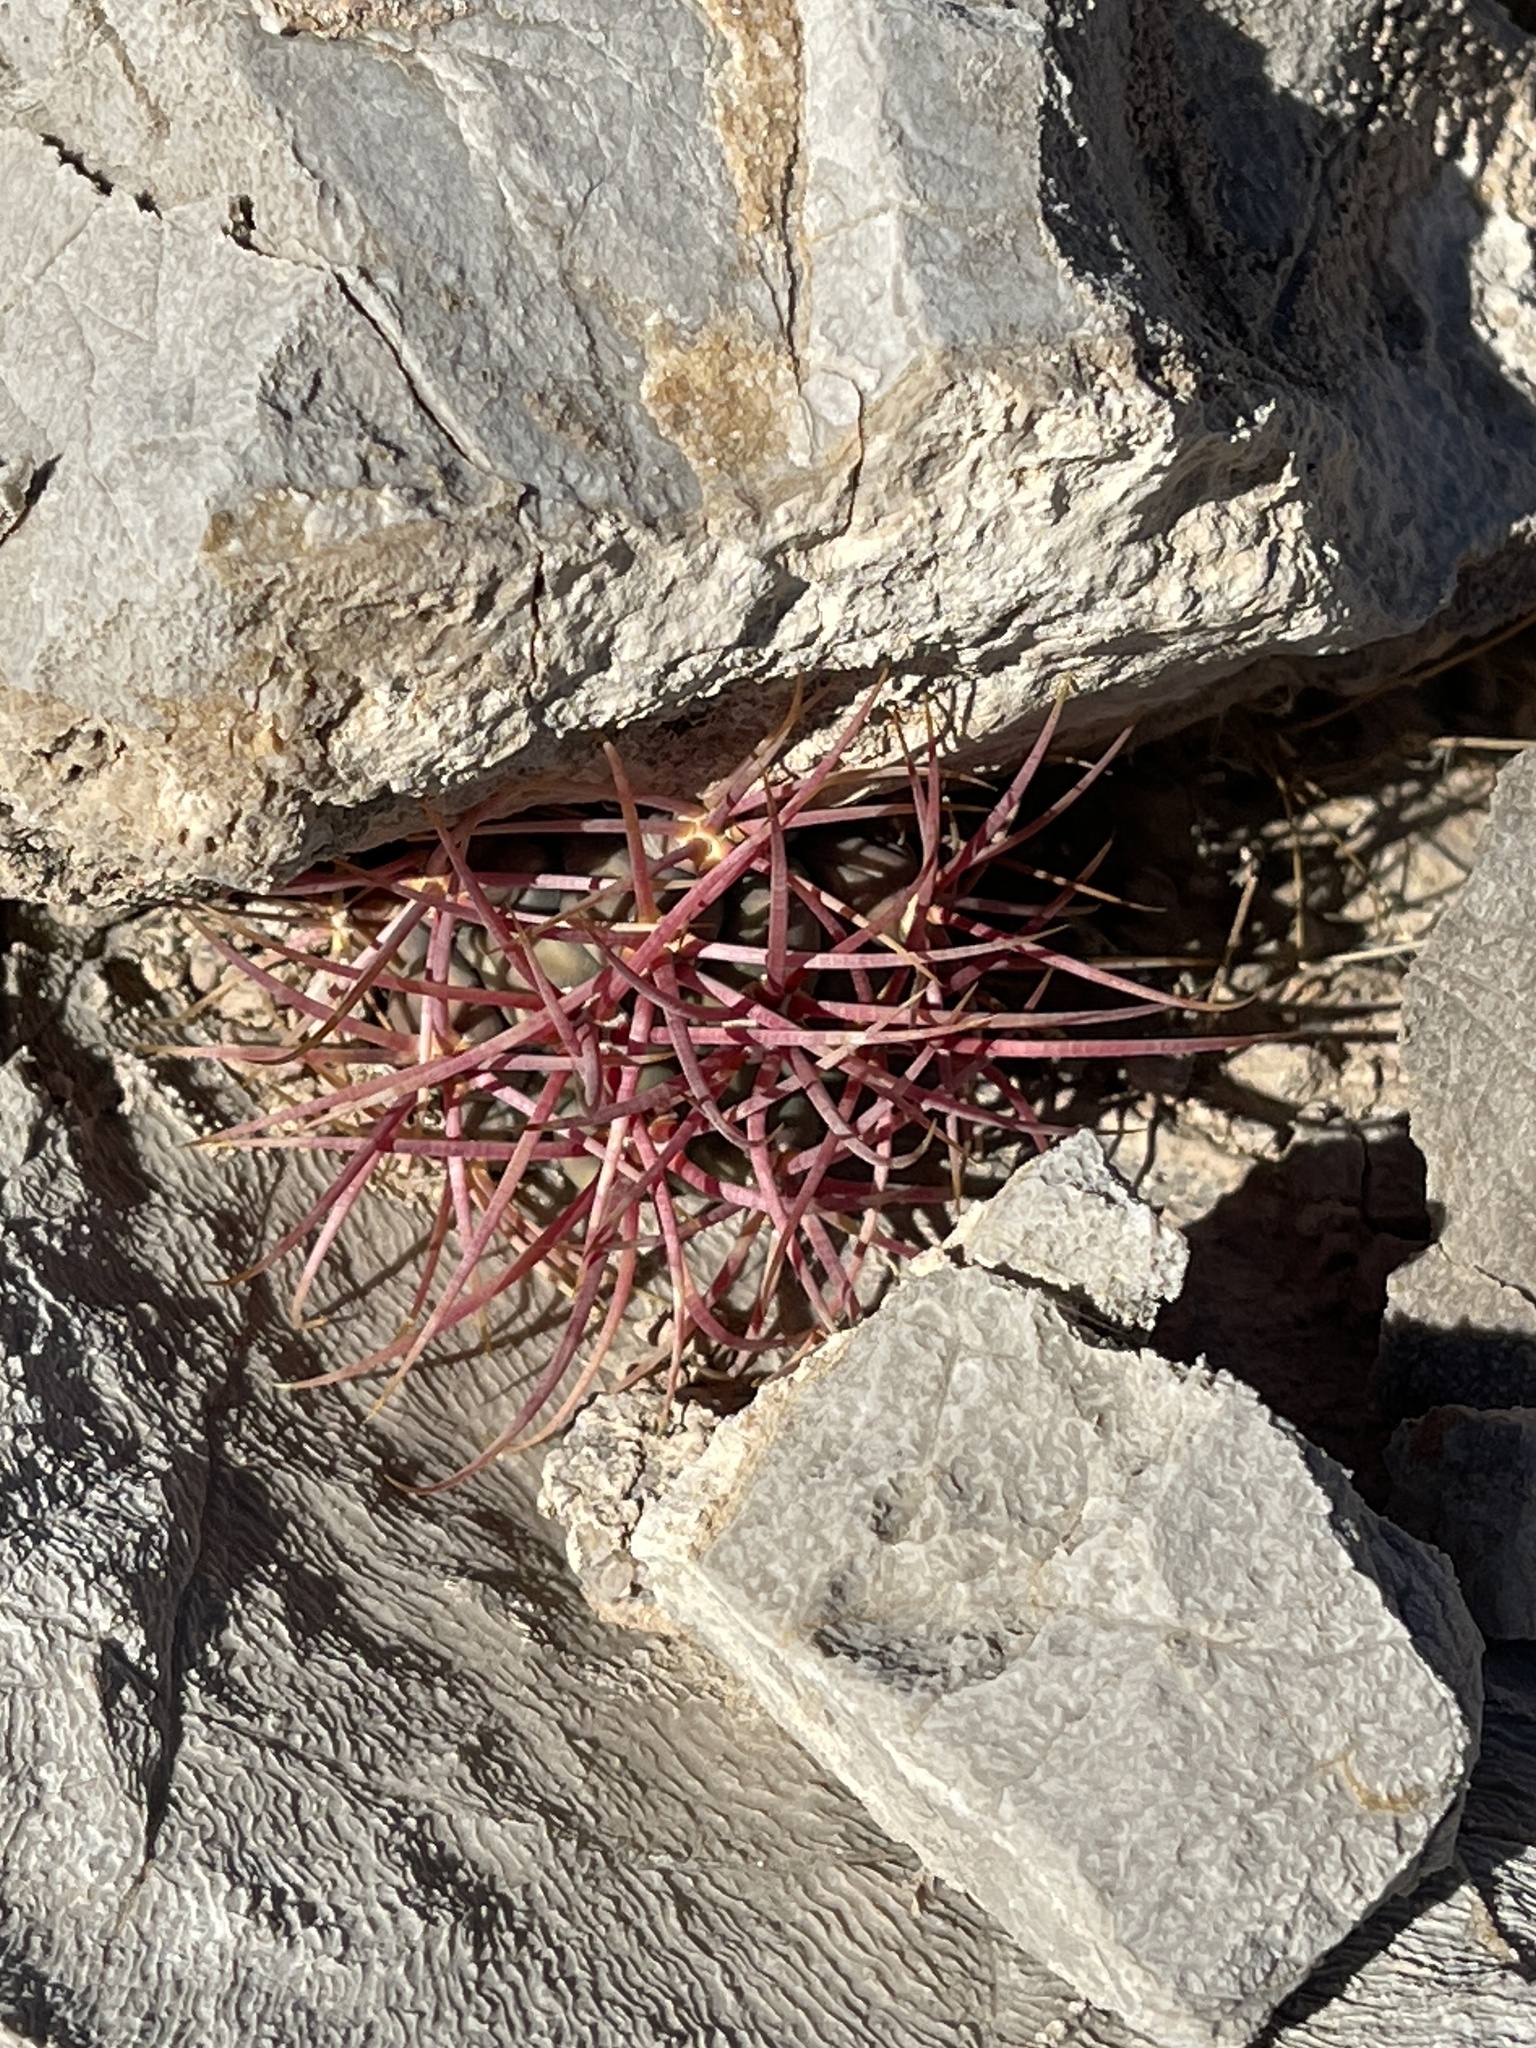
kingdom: Plantae
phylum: Tracheophyta
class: Magnoliopsida
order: Caryophyllales
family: Cactaceae
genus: Ferocactus
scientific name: Ferocactus cylindraceus
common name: California barrel cactus
